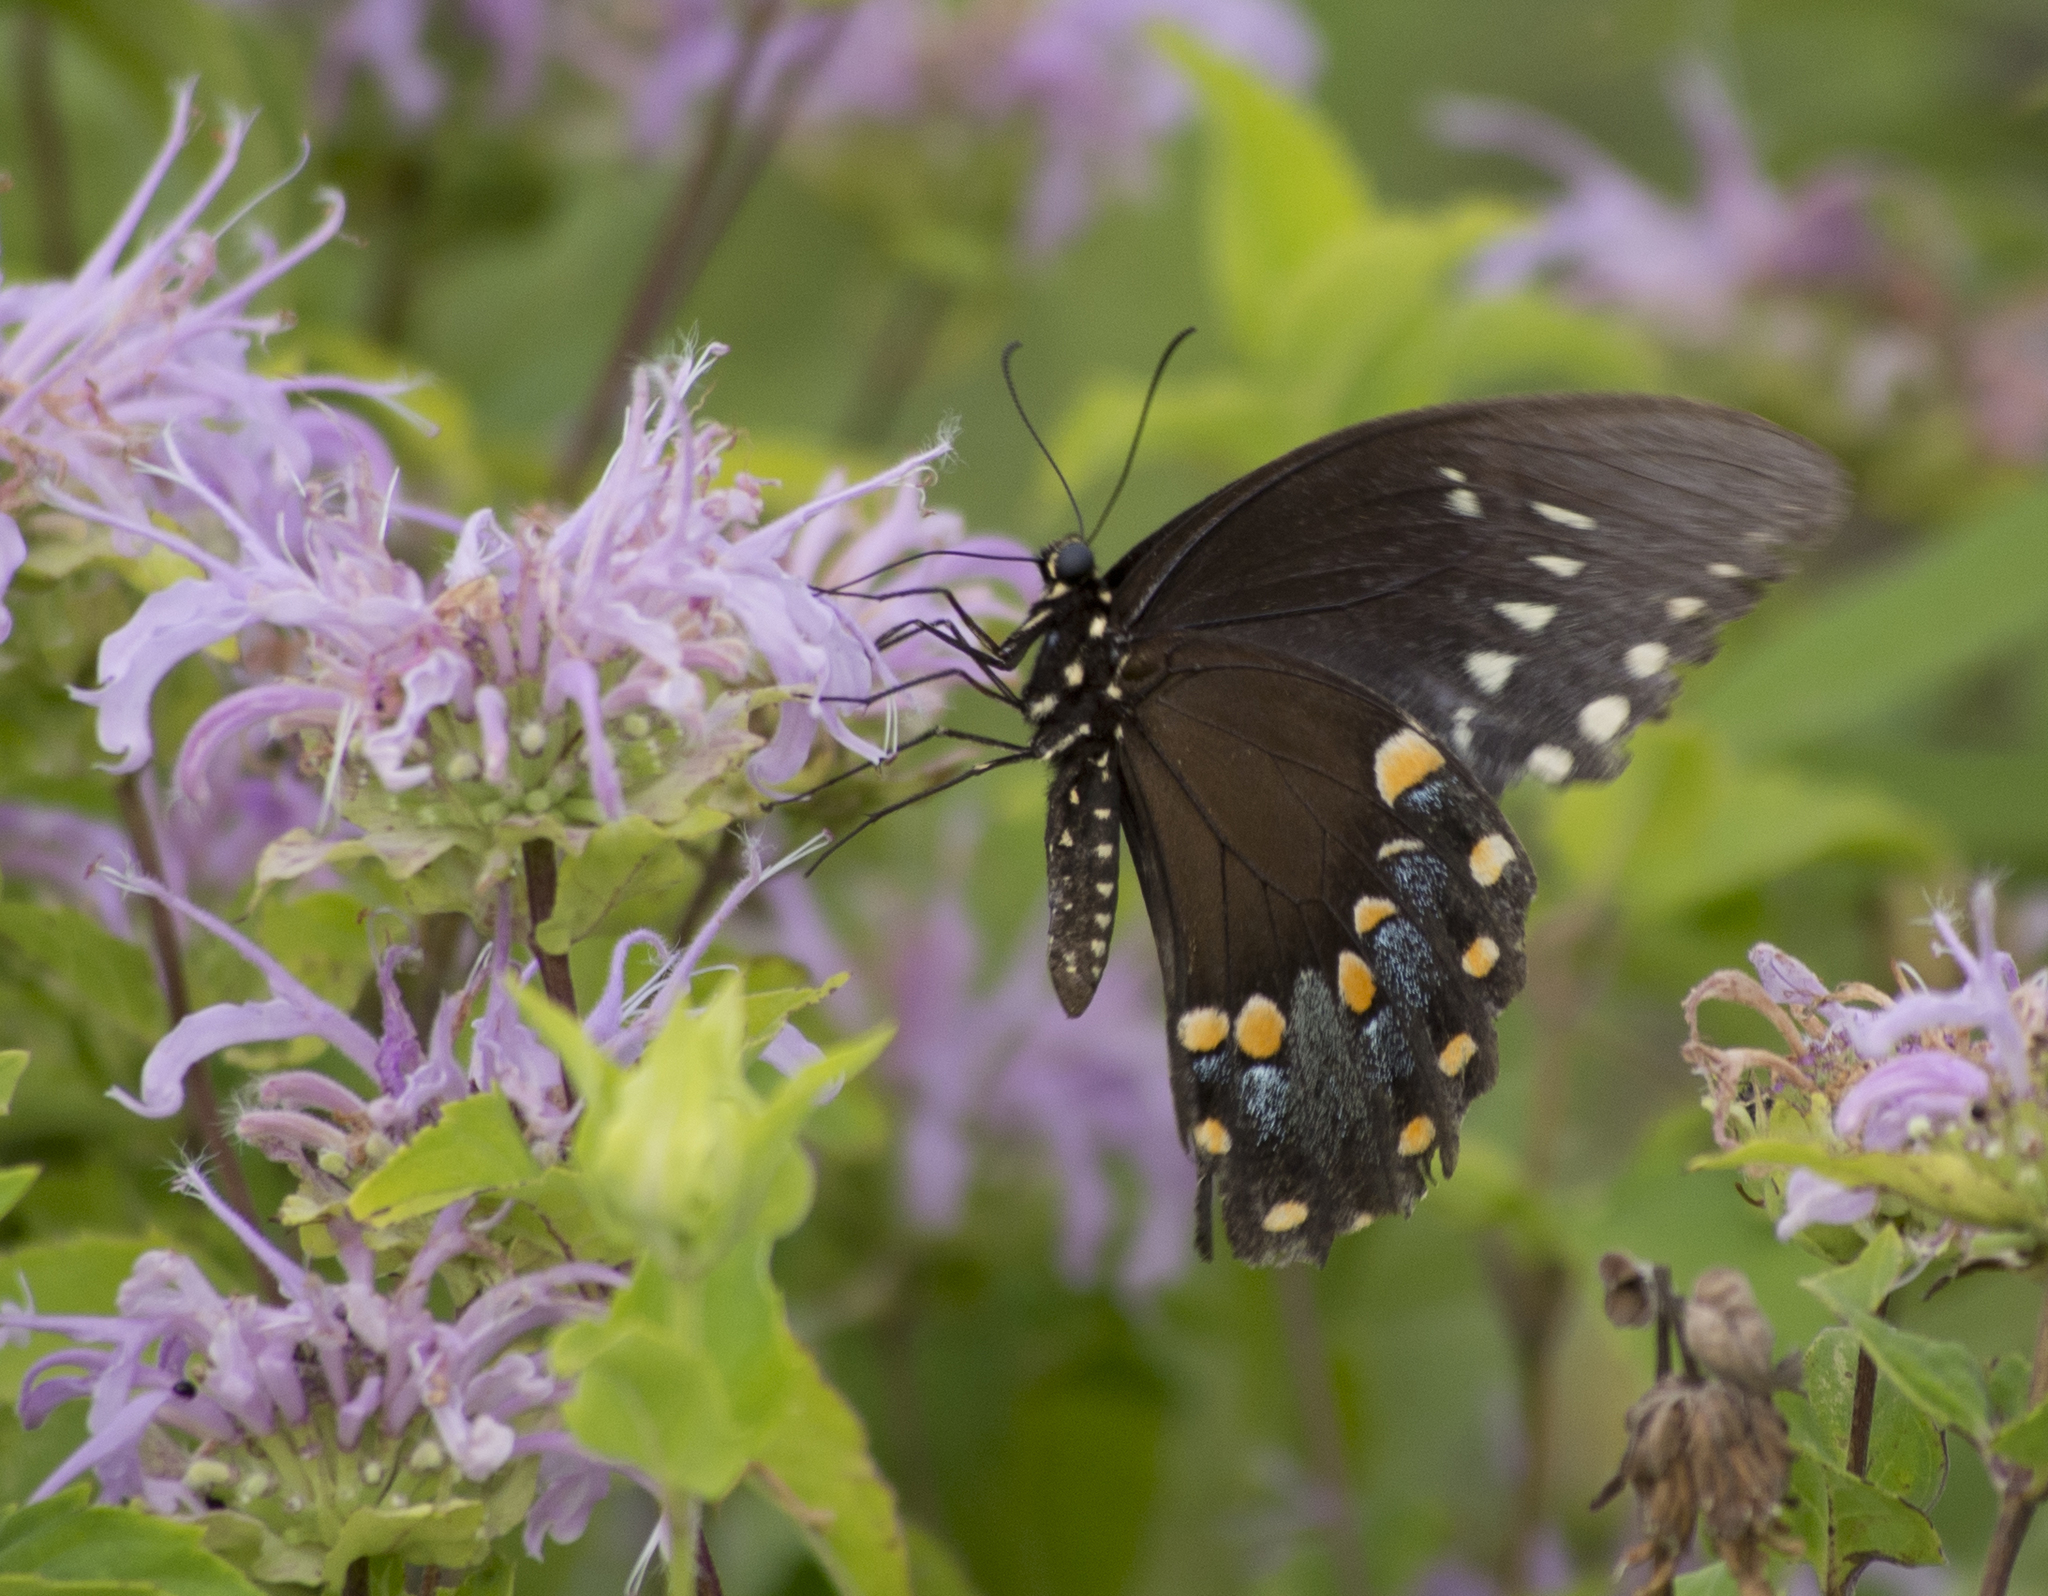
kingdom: Animalia
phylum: Arthropoda
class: Insecta
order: Lepidoptera
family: Papilionidae
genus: Papilio
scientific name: Papilio troilus
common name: Spicebush swallowtail
